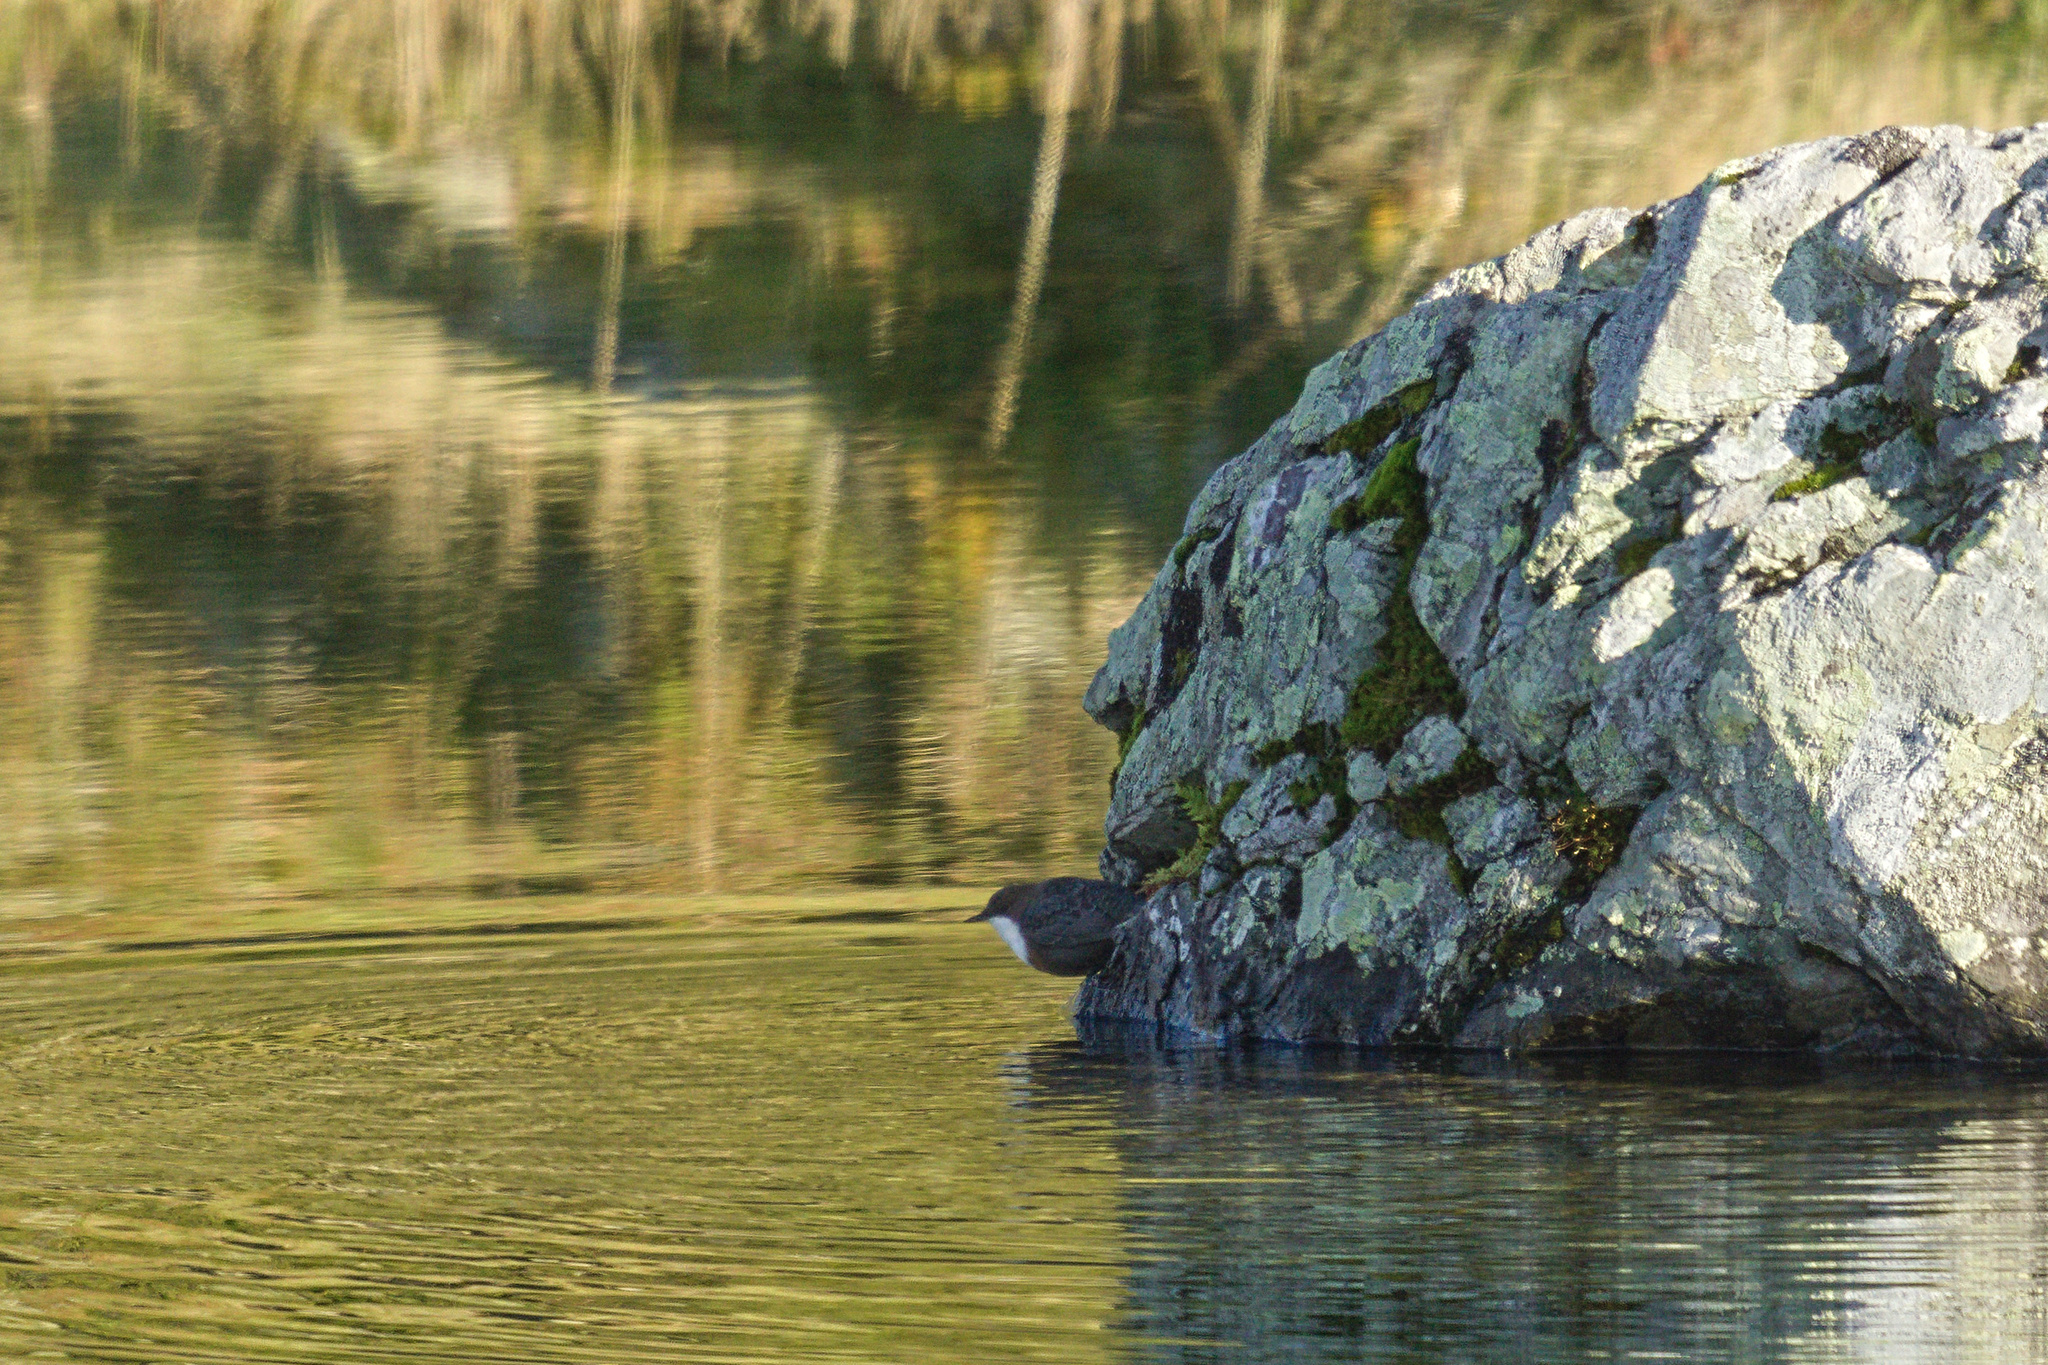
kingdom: Animalia
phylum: Chordata
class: Aves
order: Passeriformes
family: Cinclidae
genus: Cinclus
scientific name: Cinclus cinclus
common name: White-throated dipper
